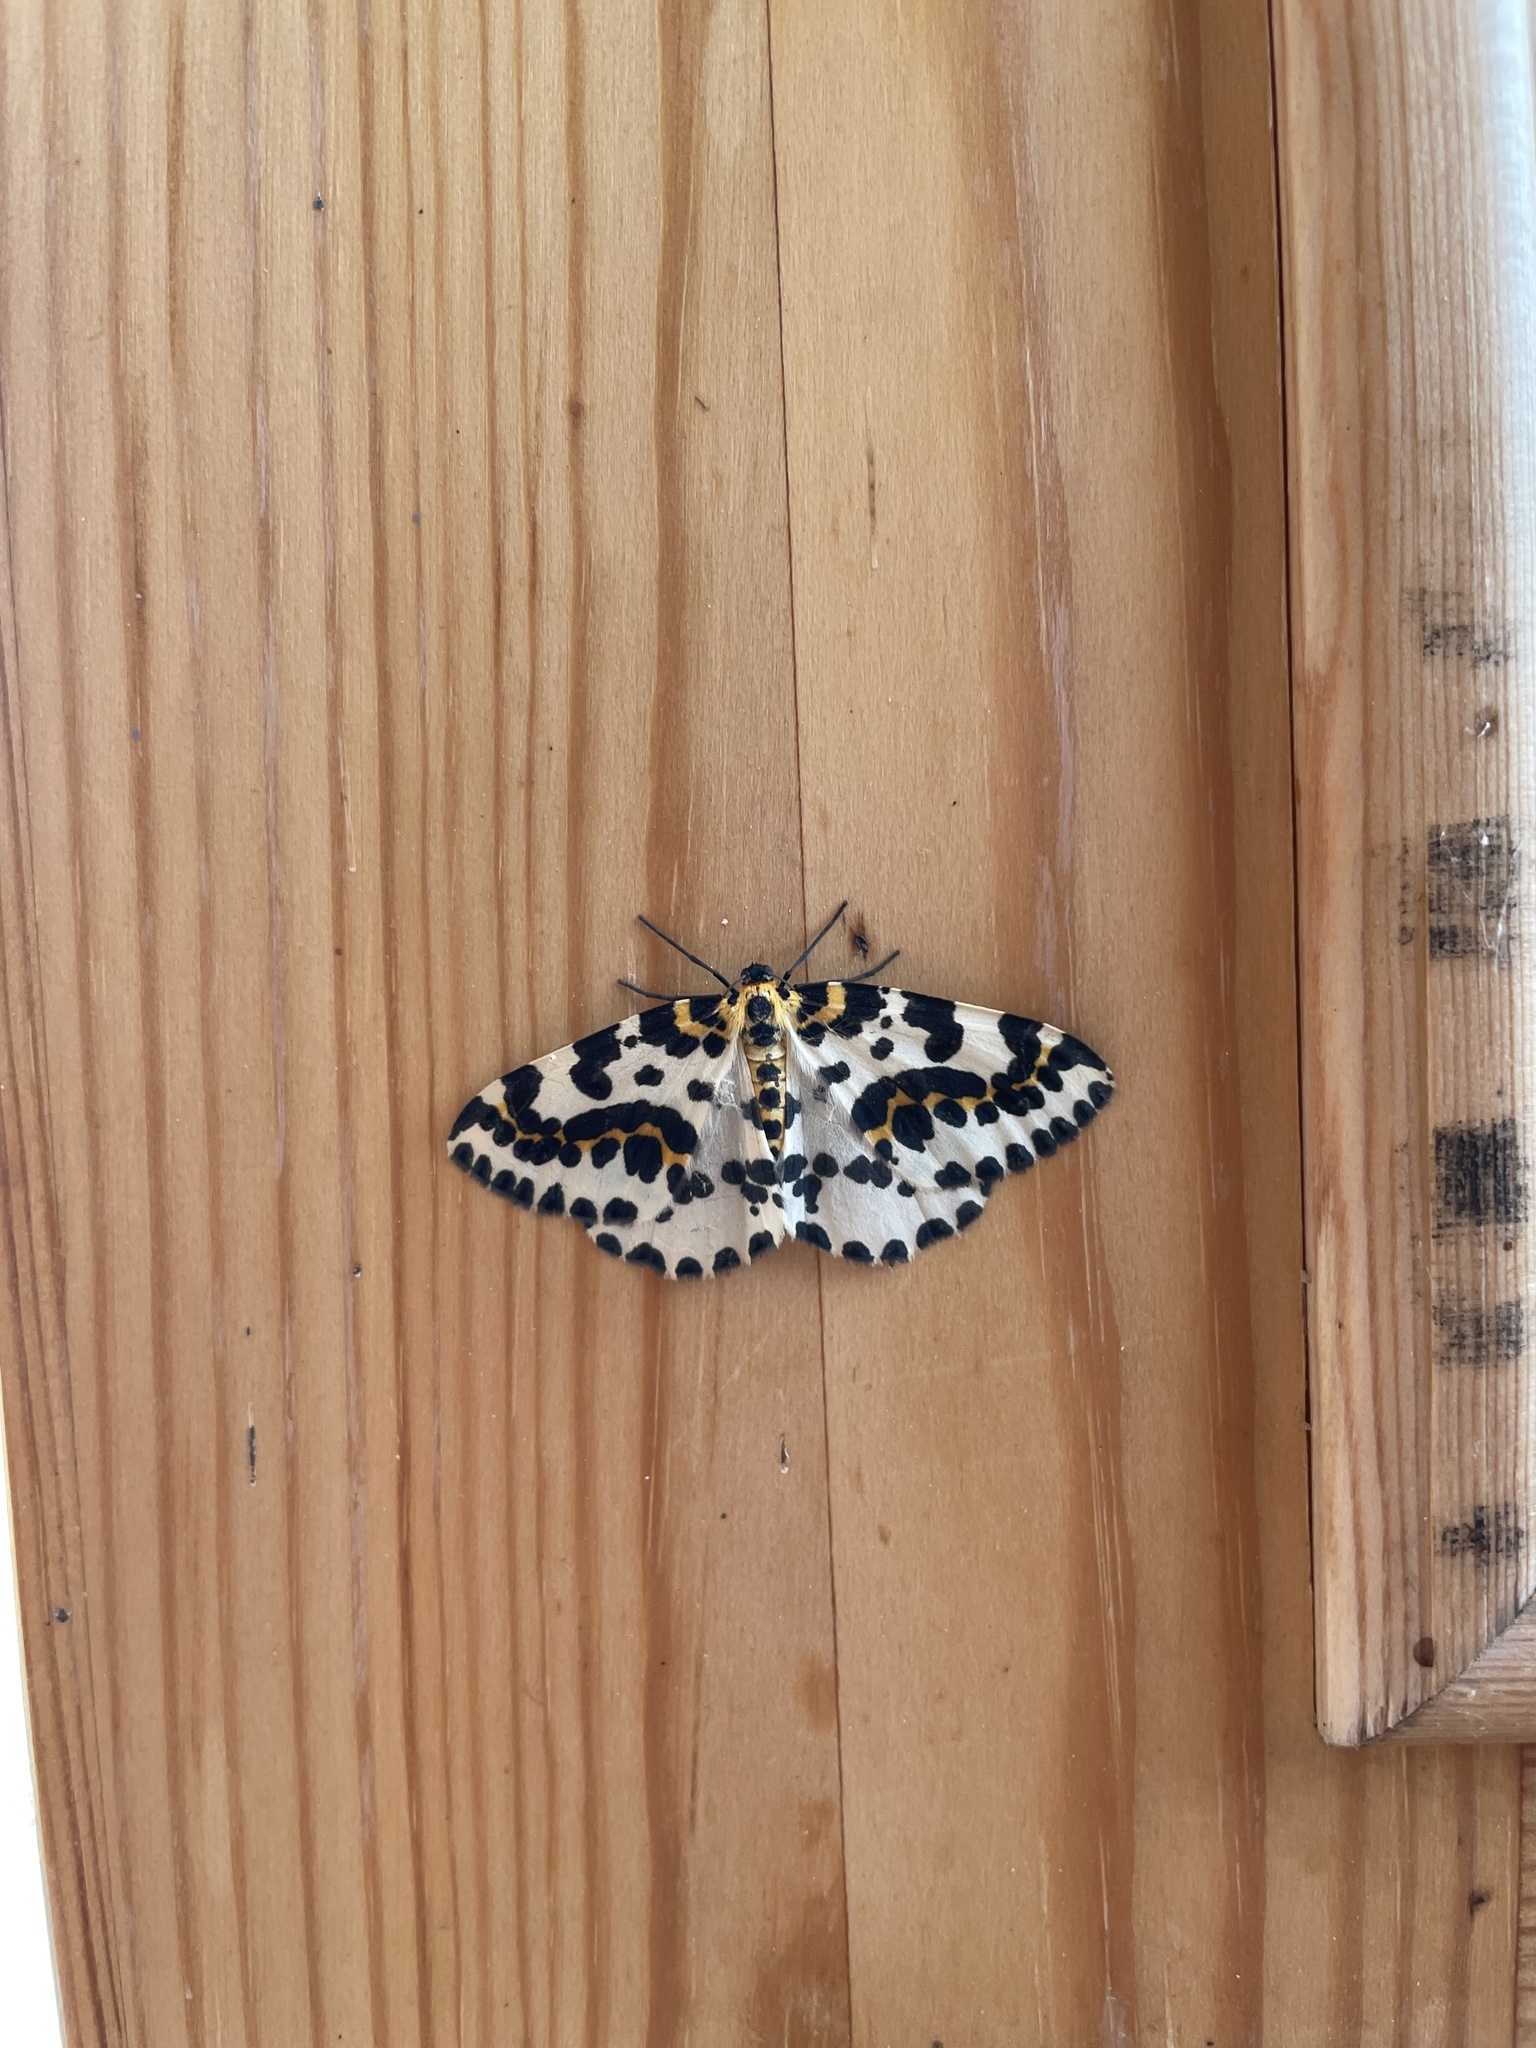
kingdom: Animalia
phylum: Arthropoda
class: Insecta
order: Lepidoptera
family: Geometridae
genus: Abraxas
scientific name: Abraxas grossulariata
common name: Magpie
